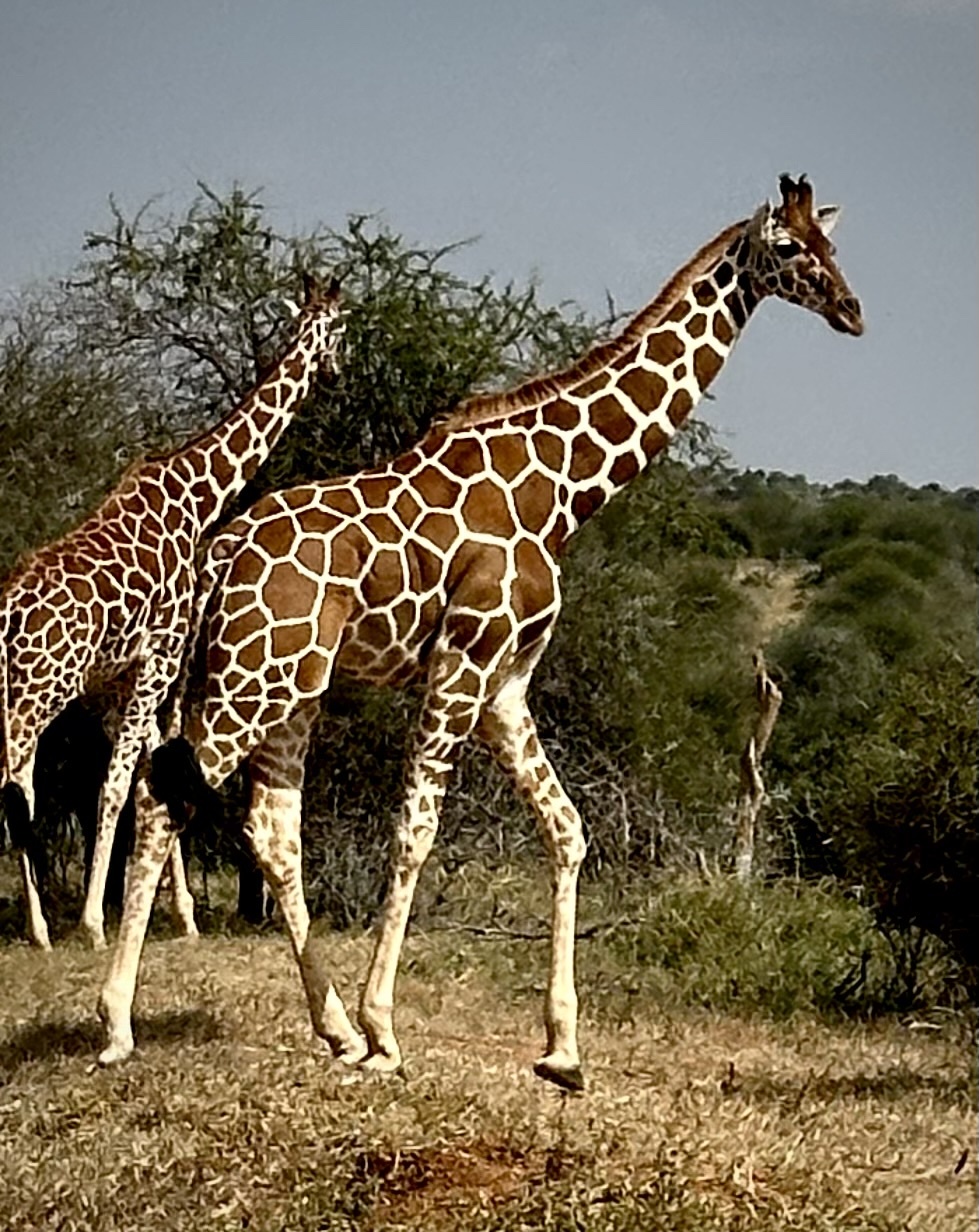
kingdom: Animalia
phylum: Chordata
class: Mammalia
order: Artiodactyla
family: Giraffidae
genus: Giraffa
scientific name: Giraffa reticulata
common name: Reticulated giraffe
